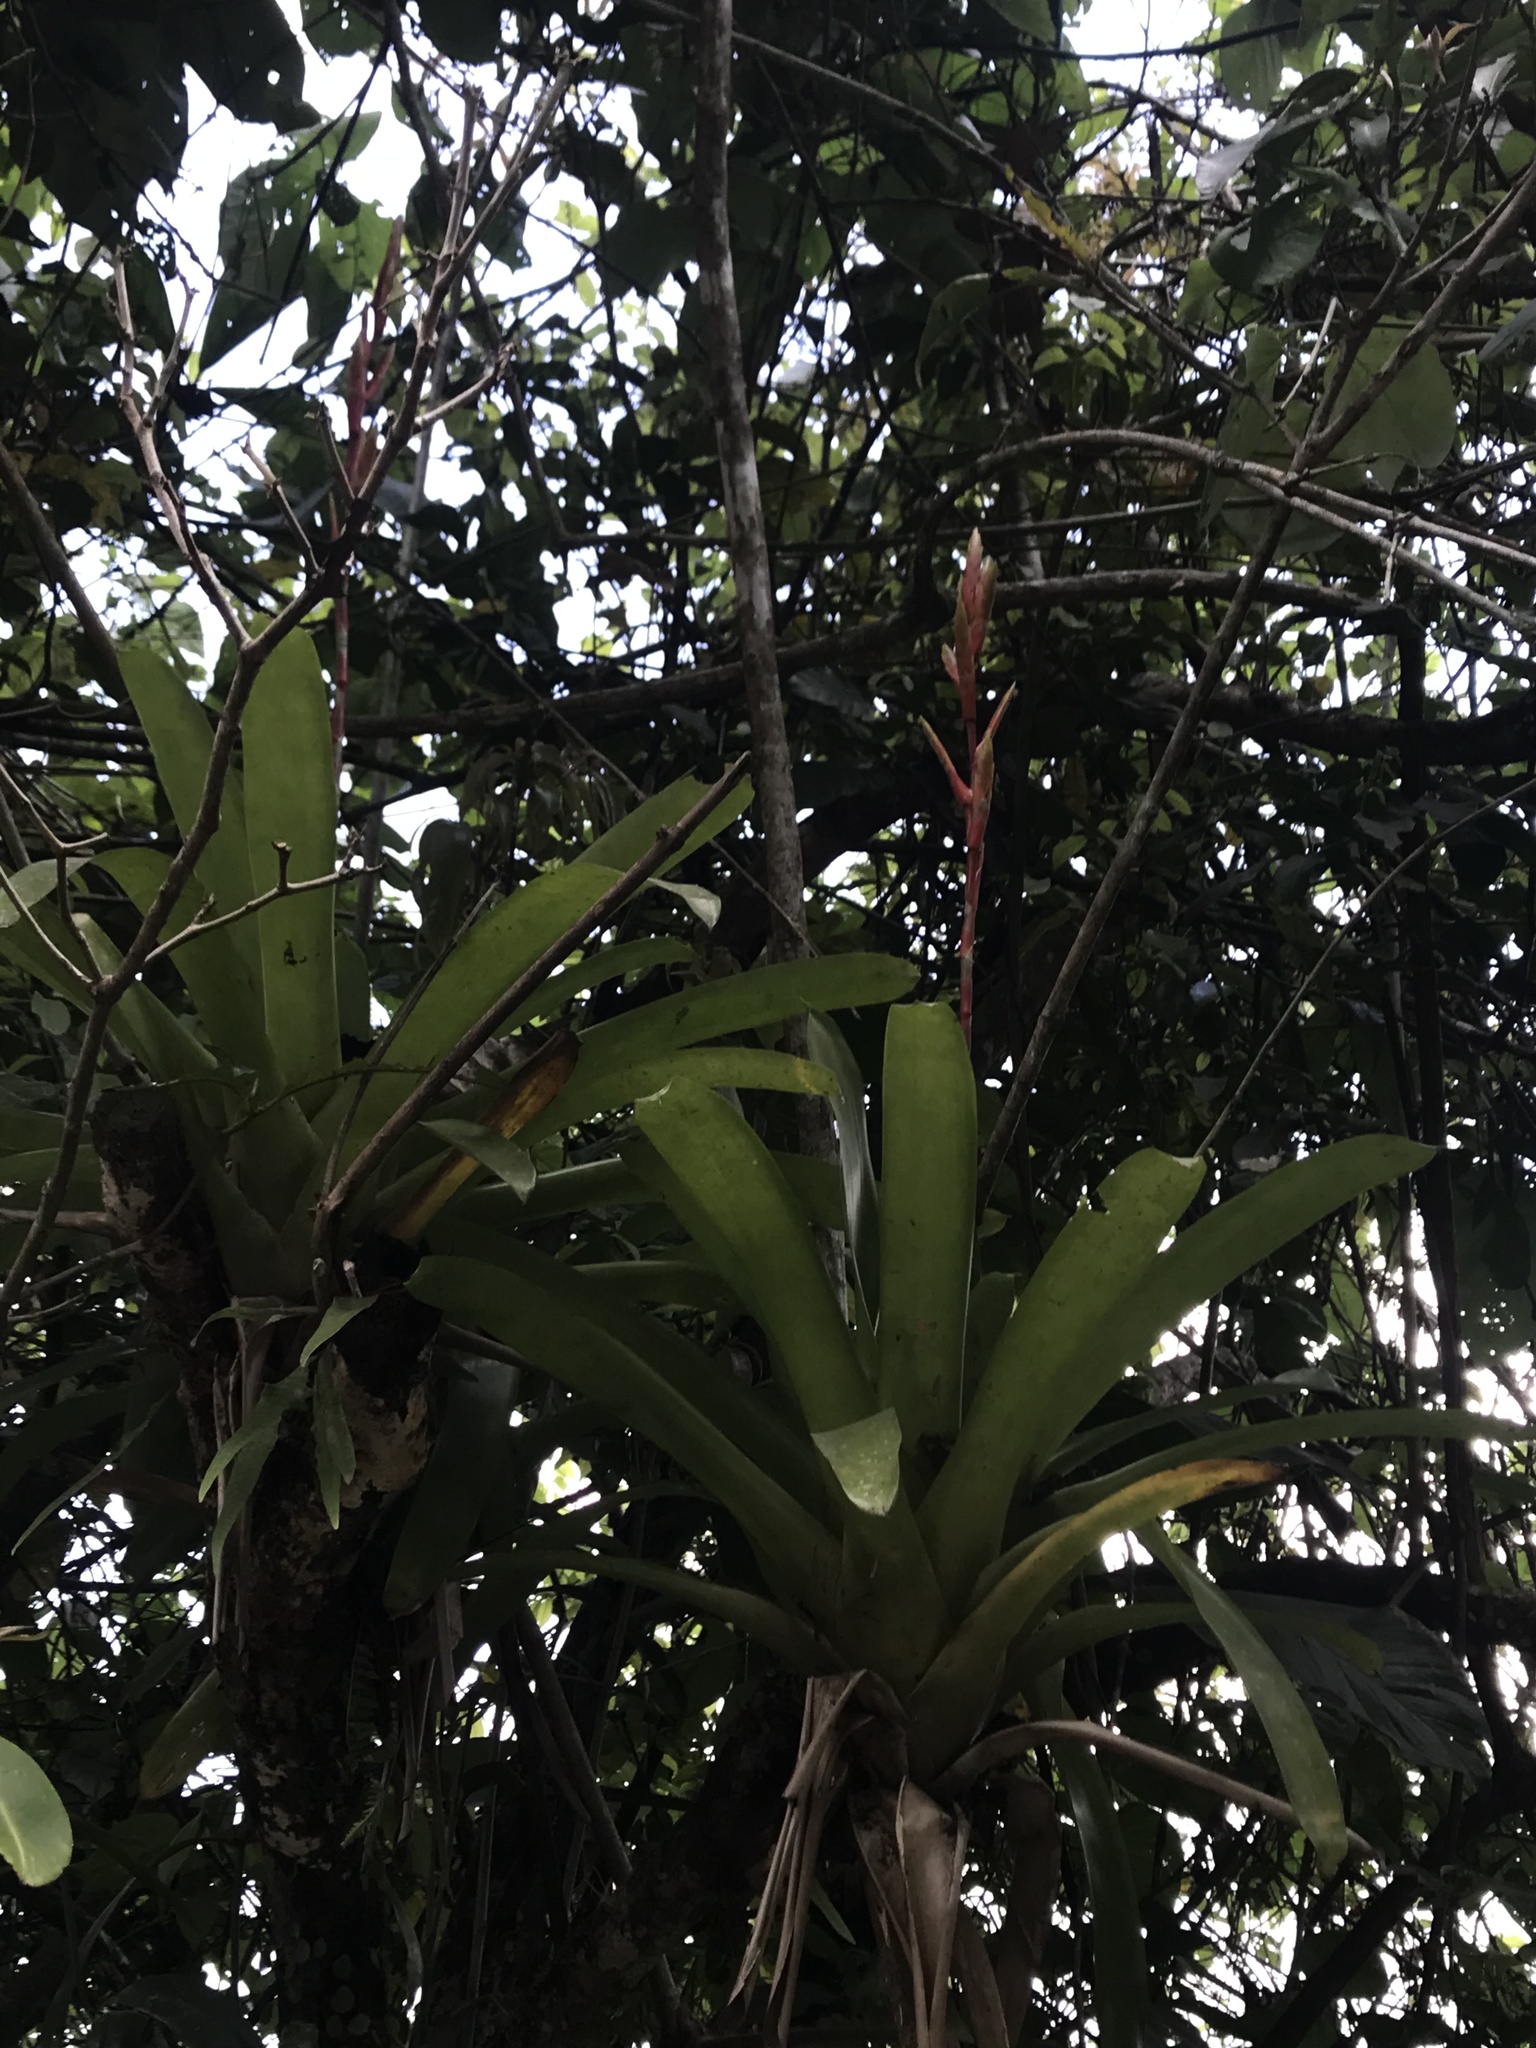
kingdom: Plantae
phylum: Tracheophyta
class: Liliopsida
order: Poales
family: Bromeliaceae
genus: Guzmania
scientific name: Guzmania monostachia
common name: West indian tufted airplant
